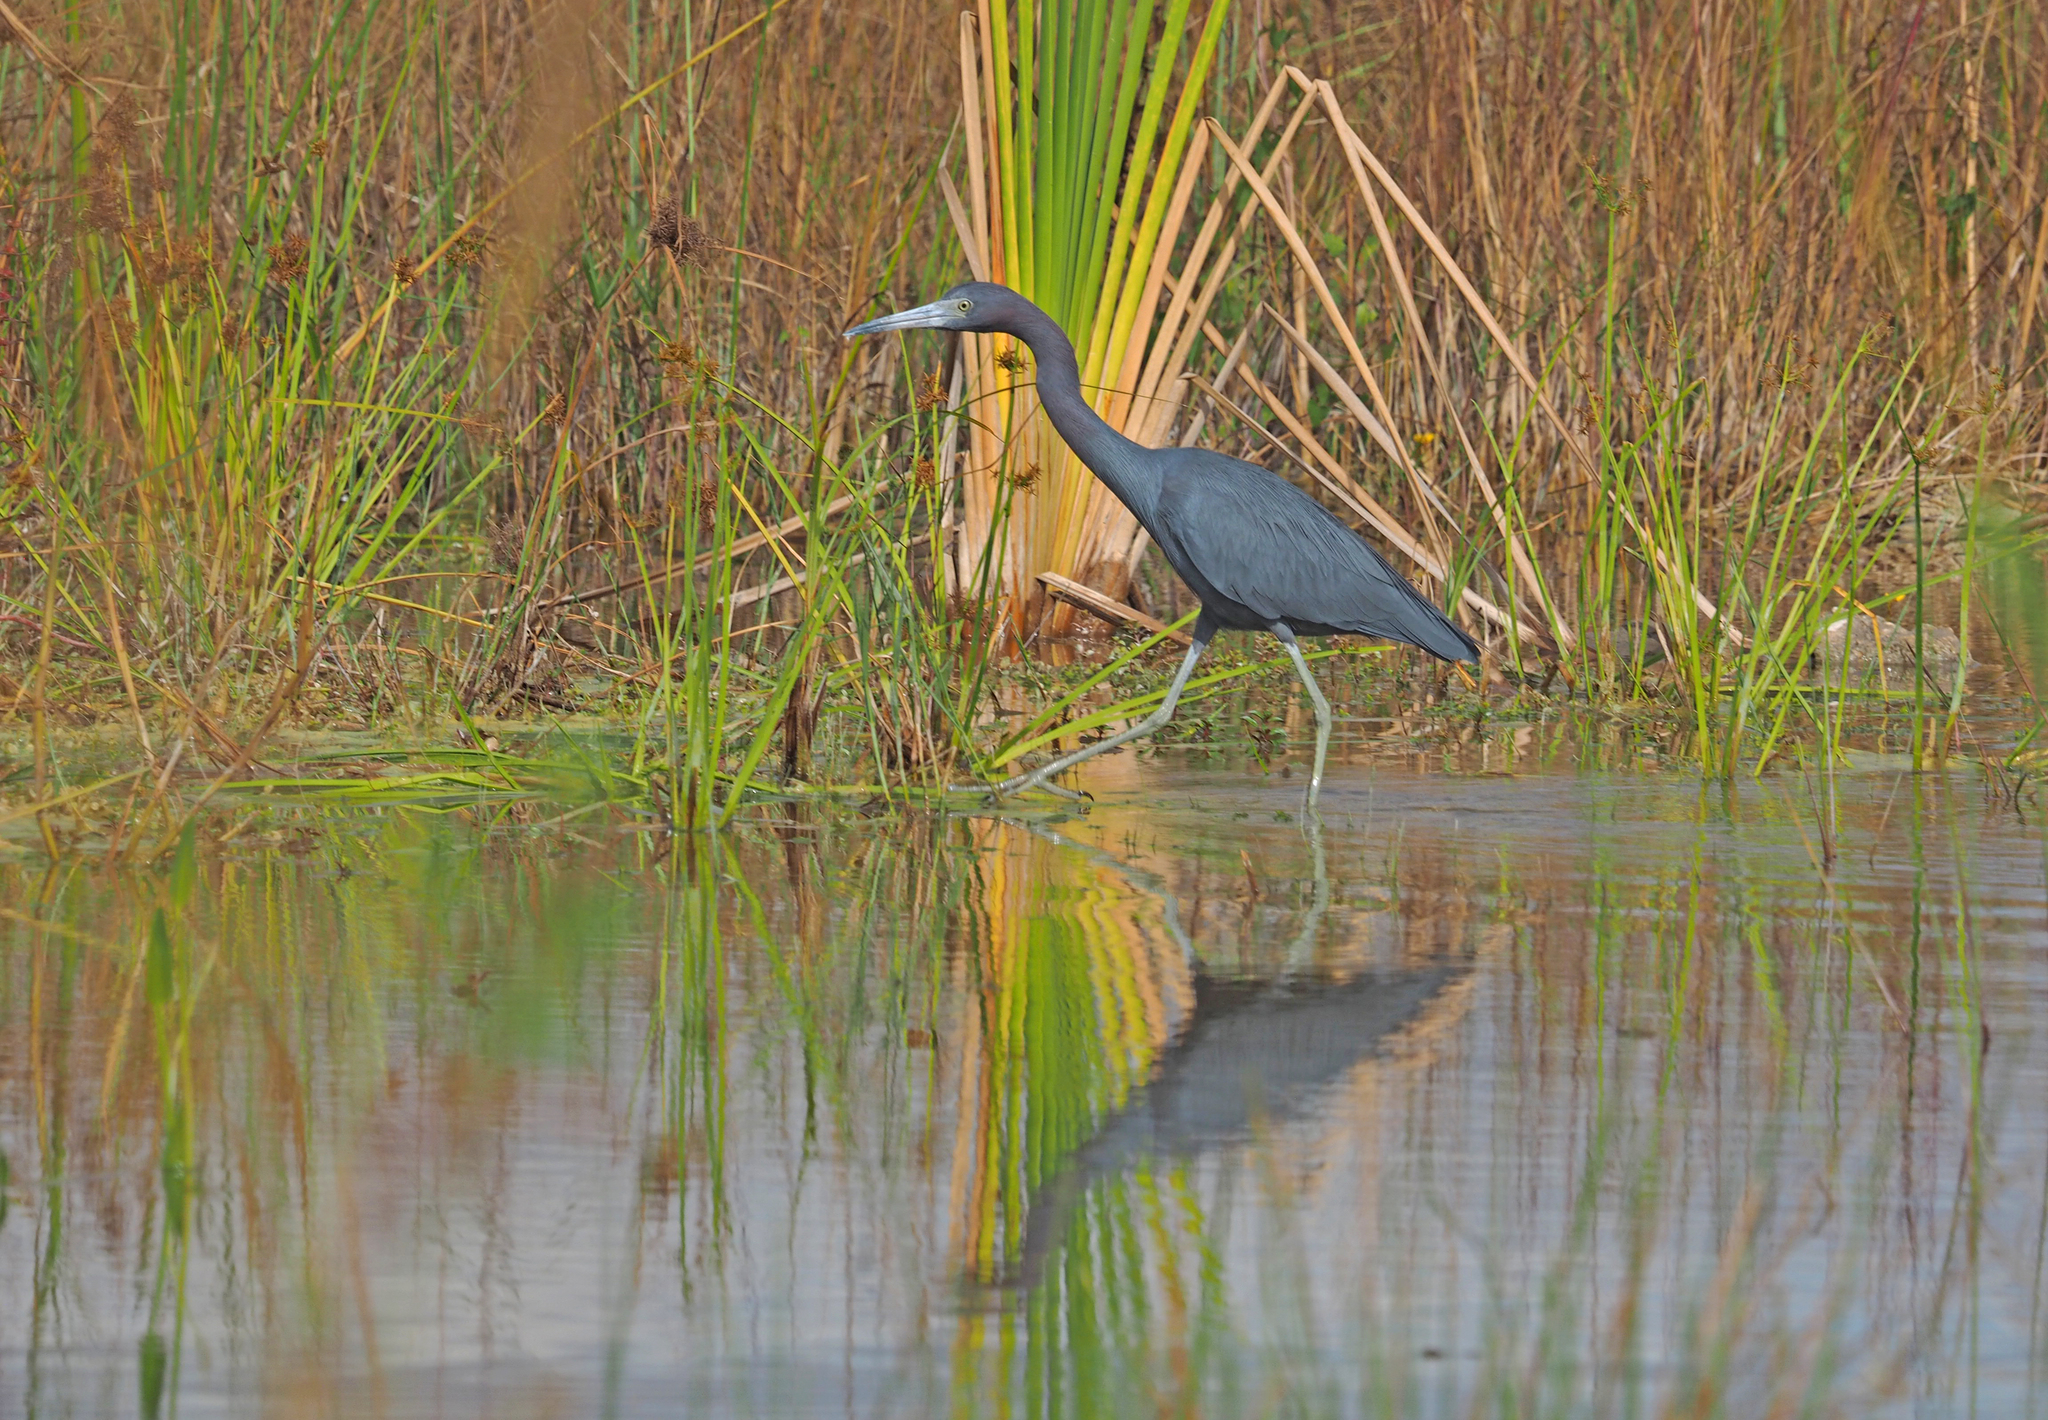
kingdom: Animalia
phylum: Chordata
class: Aves
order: Pelecaniformes
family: Ardeidae
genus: Egretta
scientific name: Egretta caerulea
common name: Little blue heron
